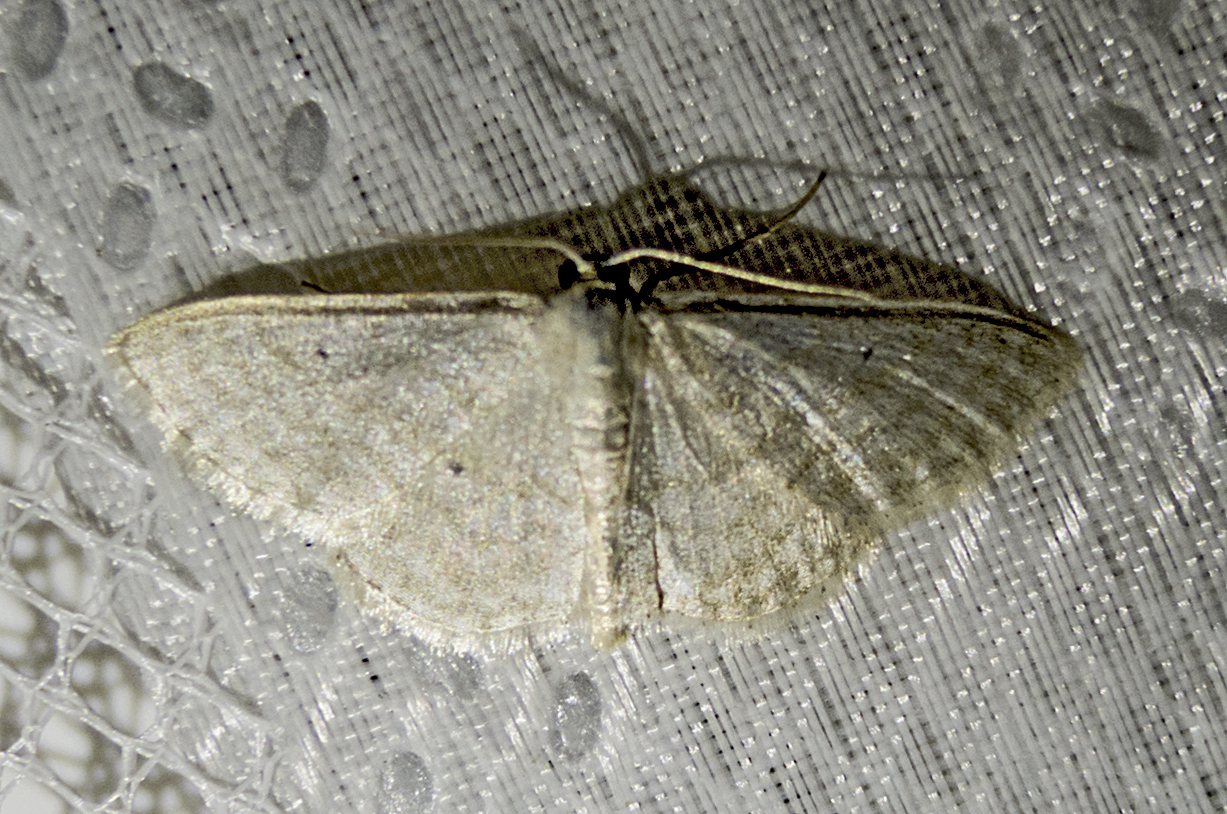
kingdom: Animalia
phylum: Arthropoda
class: Insecta
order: Lepidoptera
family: Geometridae
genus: Idaea
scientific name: Idaea sylvestraria
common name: Dotted borded wave
